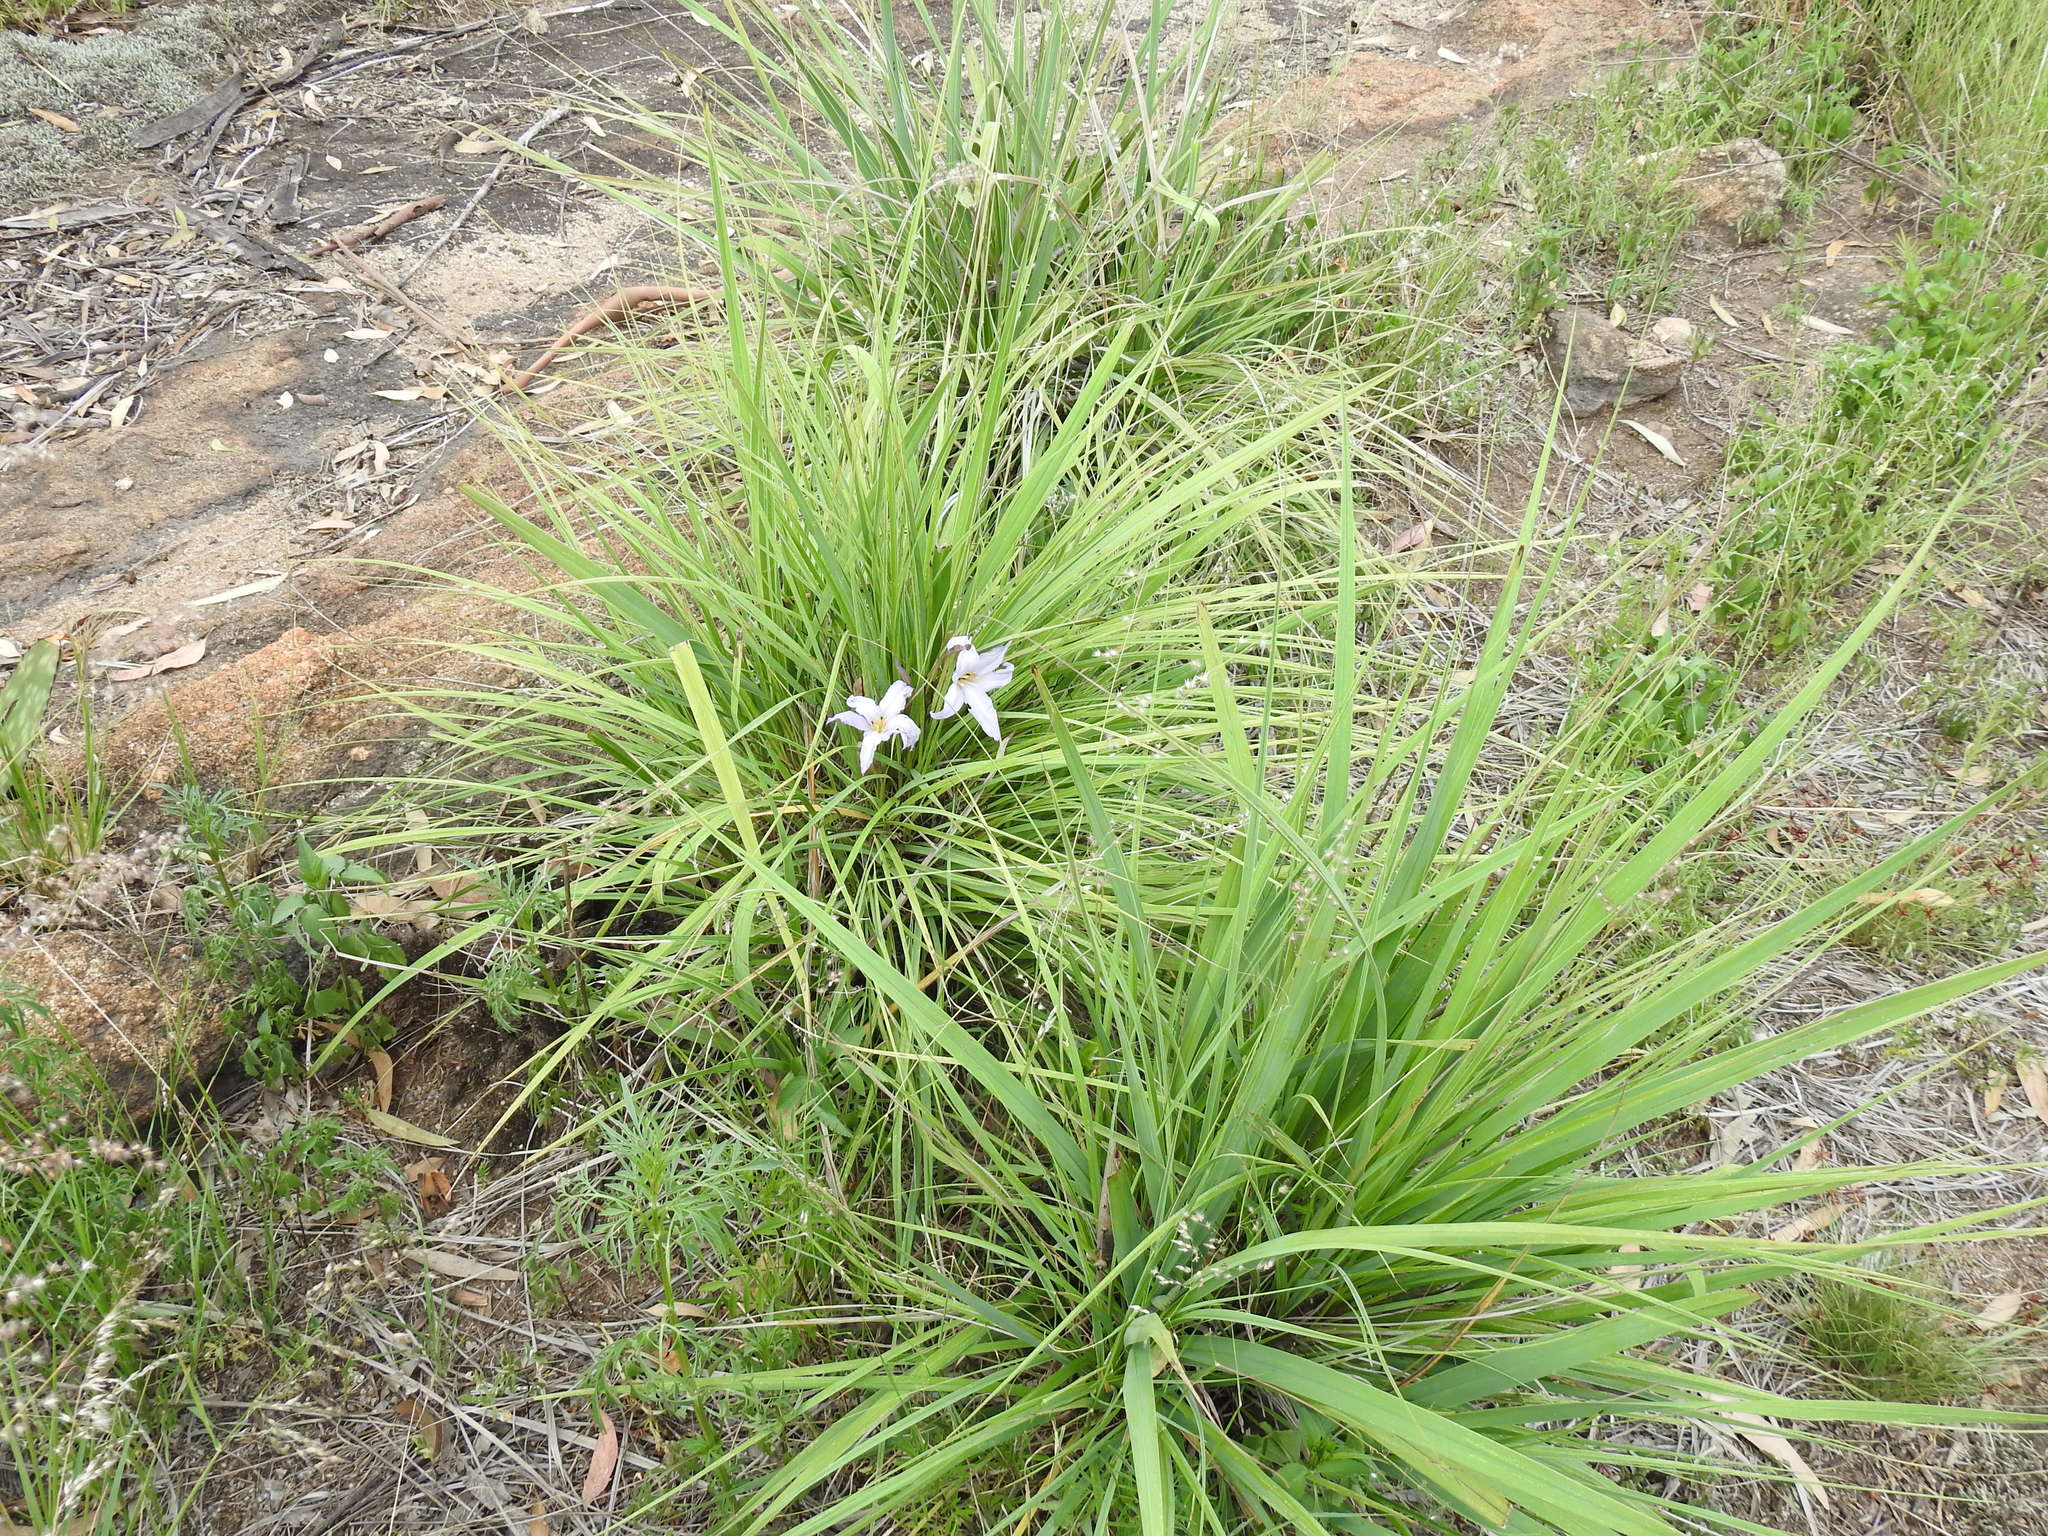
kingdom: Plantae
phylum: Tracheophyta
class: Liliopsida
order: Pandanales
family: Velloziaceae
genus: Xerophyta
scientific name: Xerophyta retinervis
